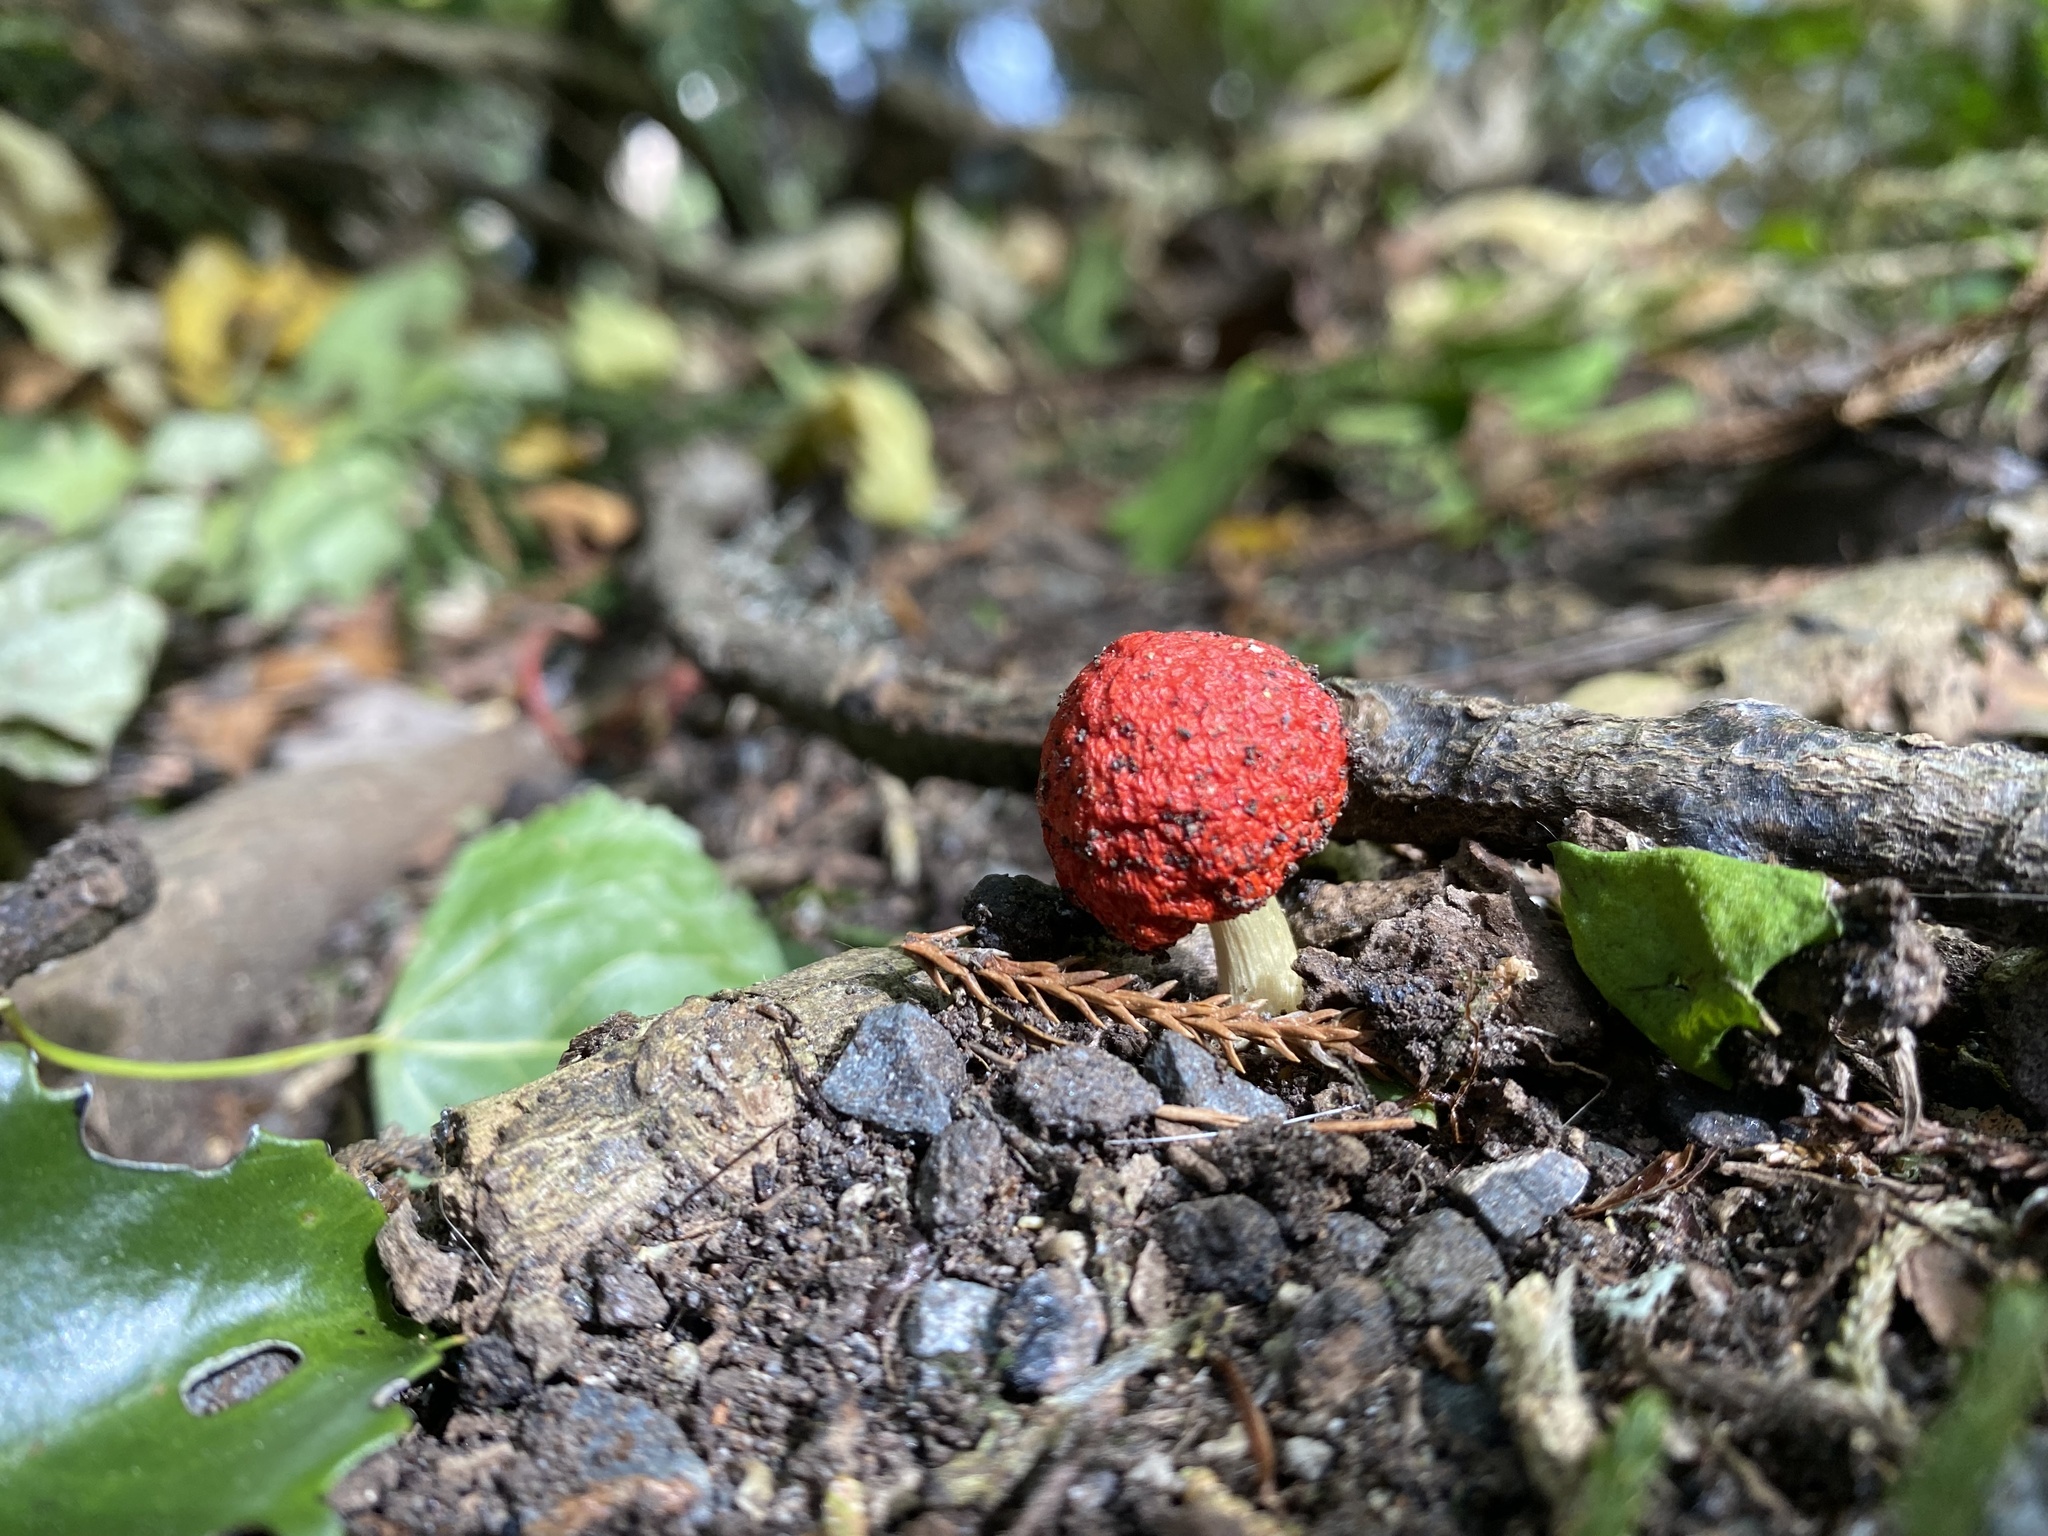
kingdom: Fungi
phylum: Basidiomycota
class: Agaricomycetes
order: Agaricales
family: Strophariaceae
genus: Leratiomyces
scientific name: Leratiomyces erythrocephalus
